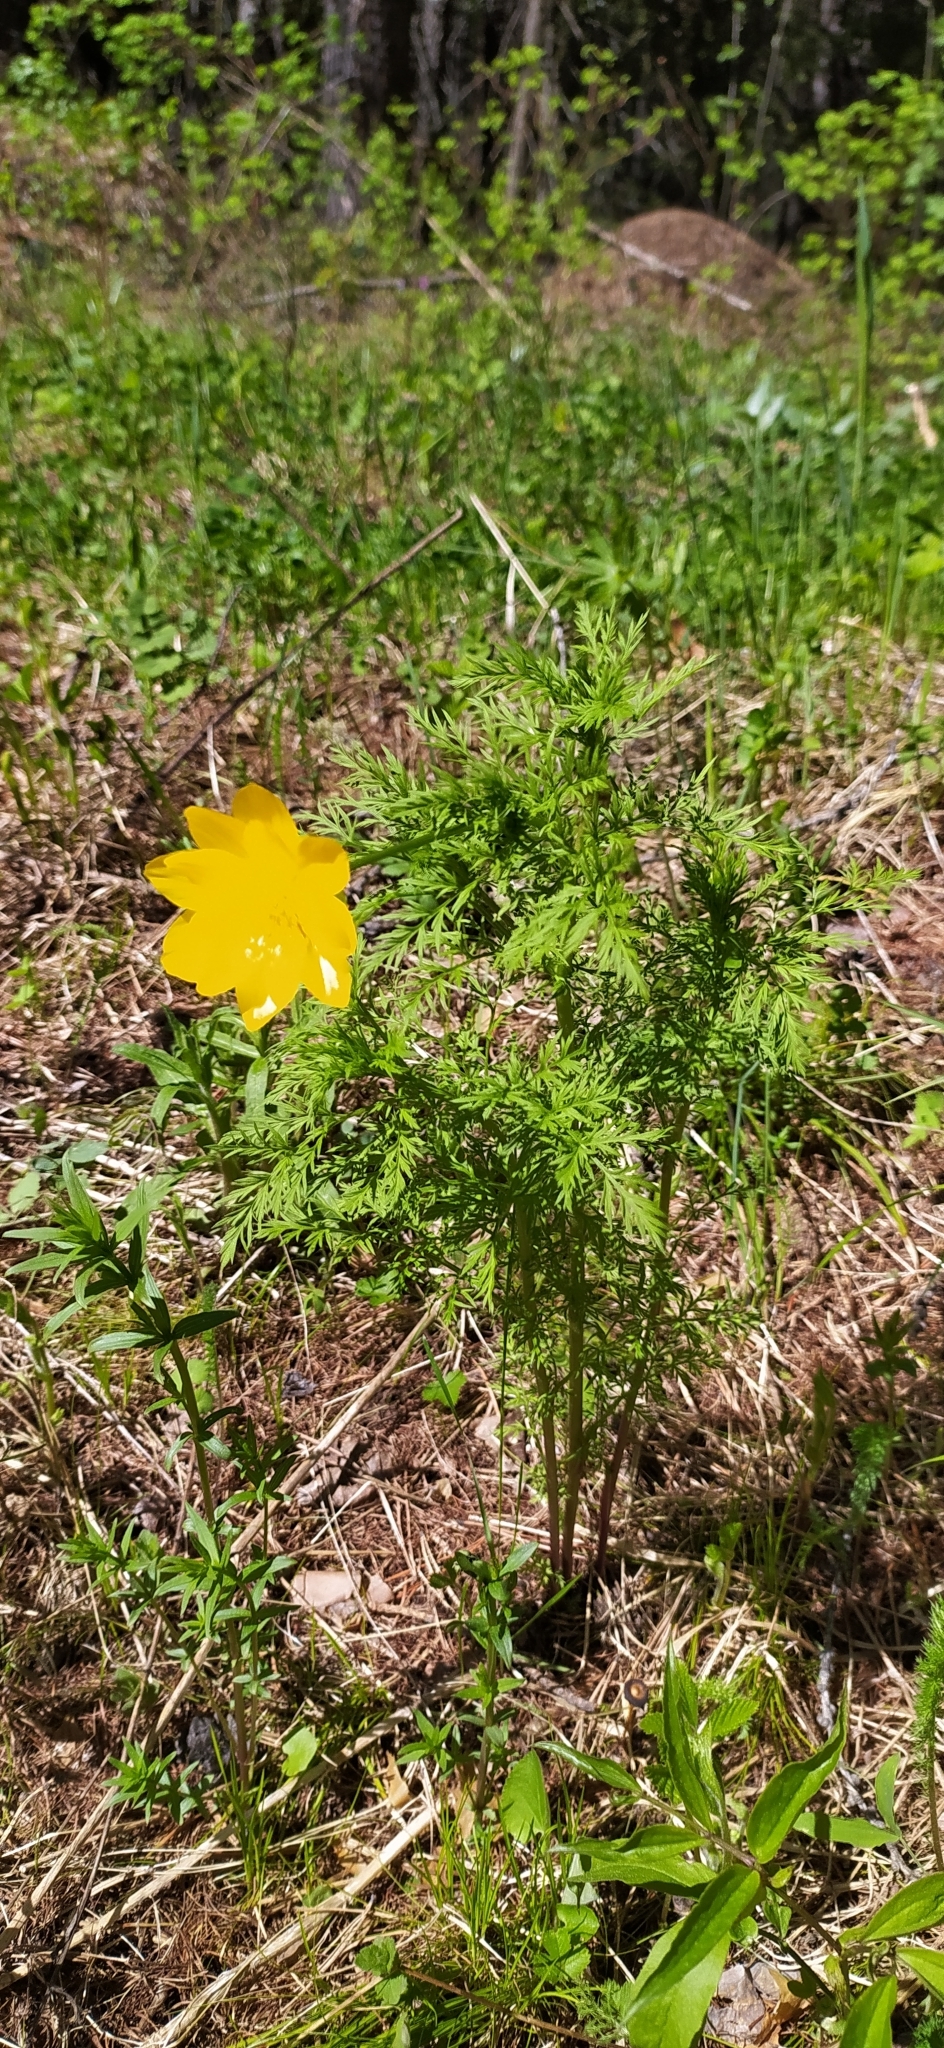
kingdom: Plantae
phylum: Tracheophyta
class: Magnoliopsida
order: Ranunculales
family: Ranunculaceae
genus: Adonis
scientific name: Adonis
